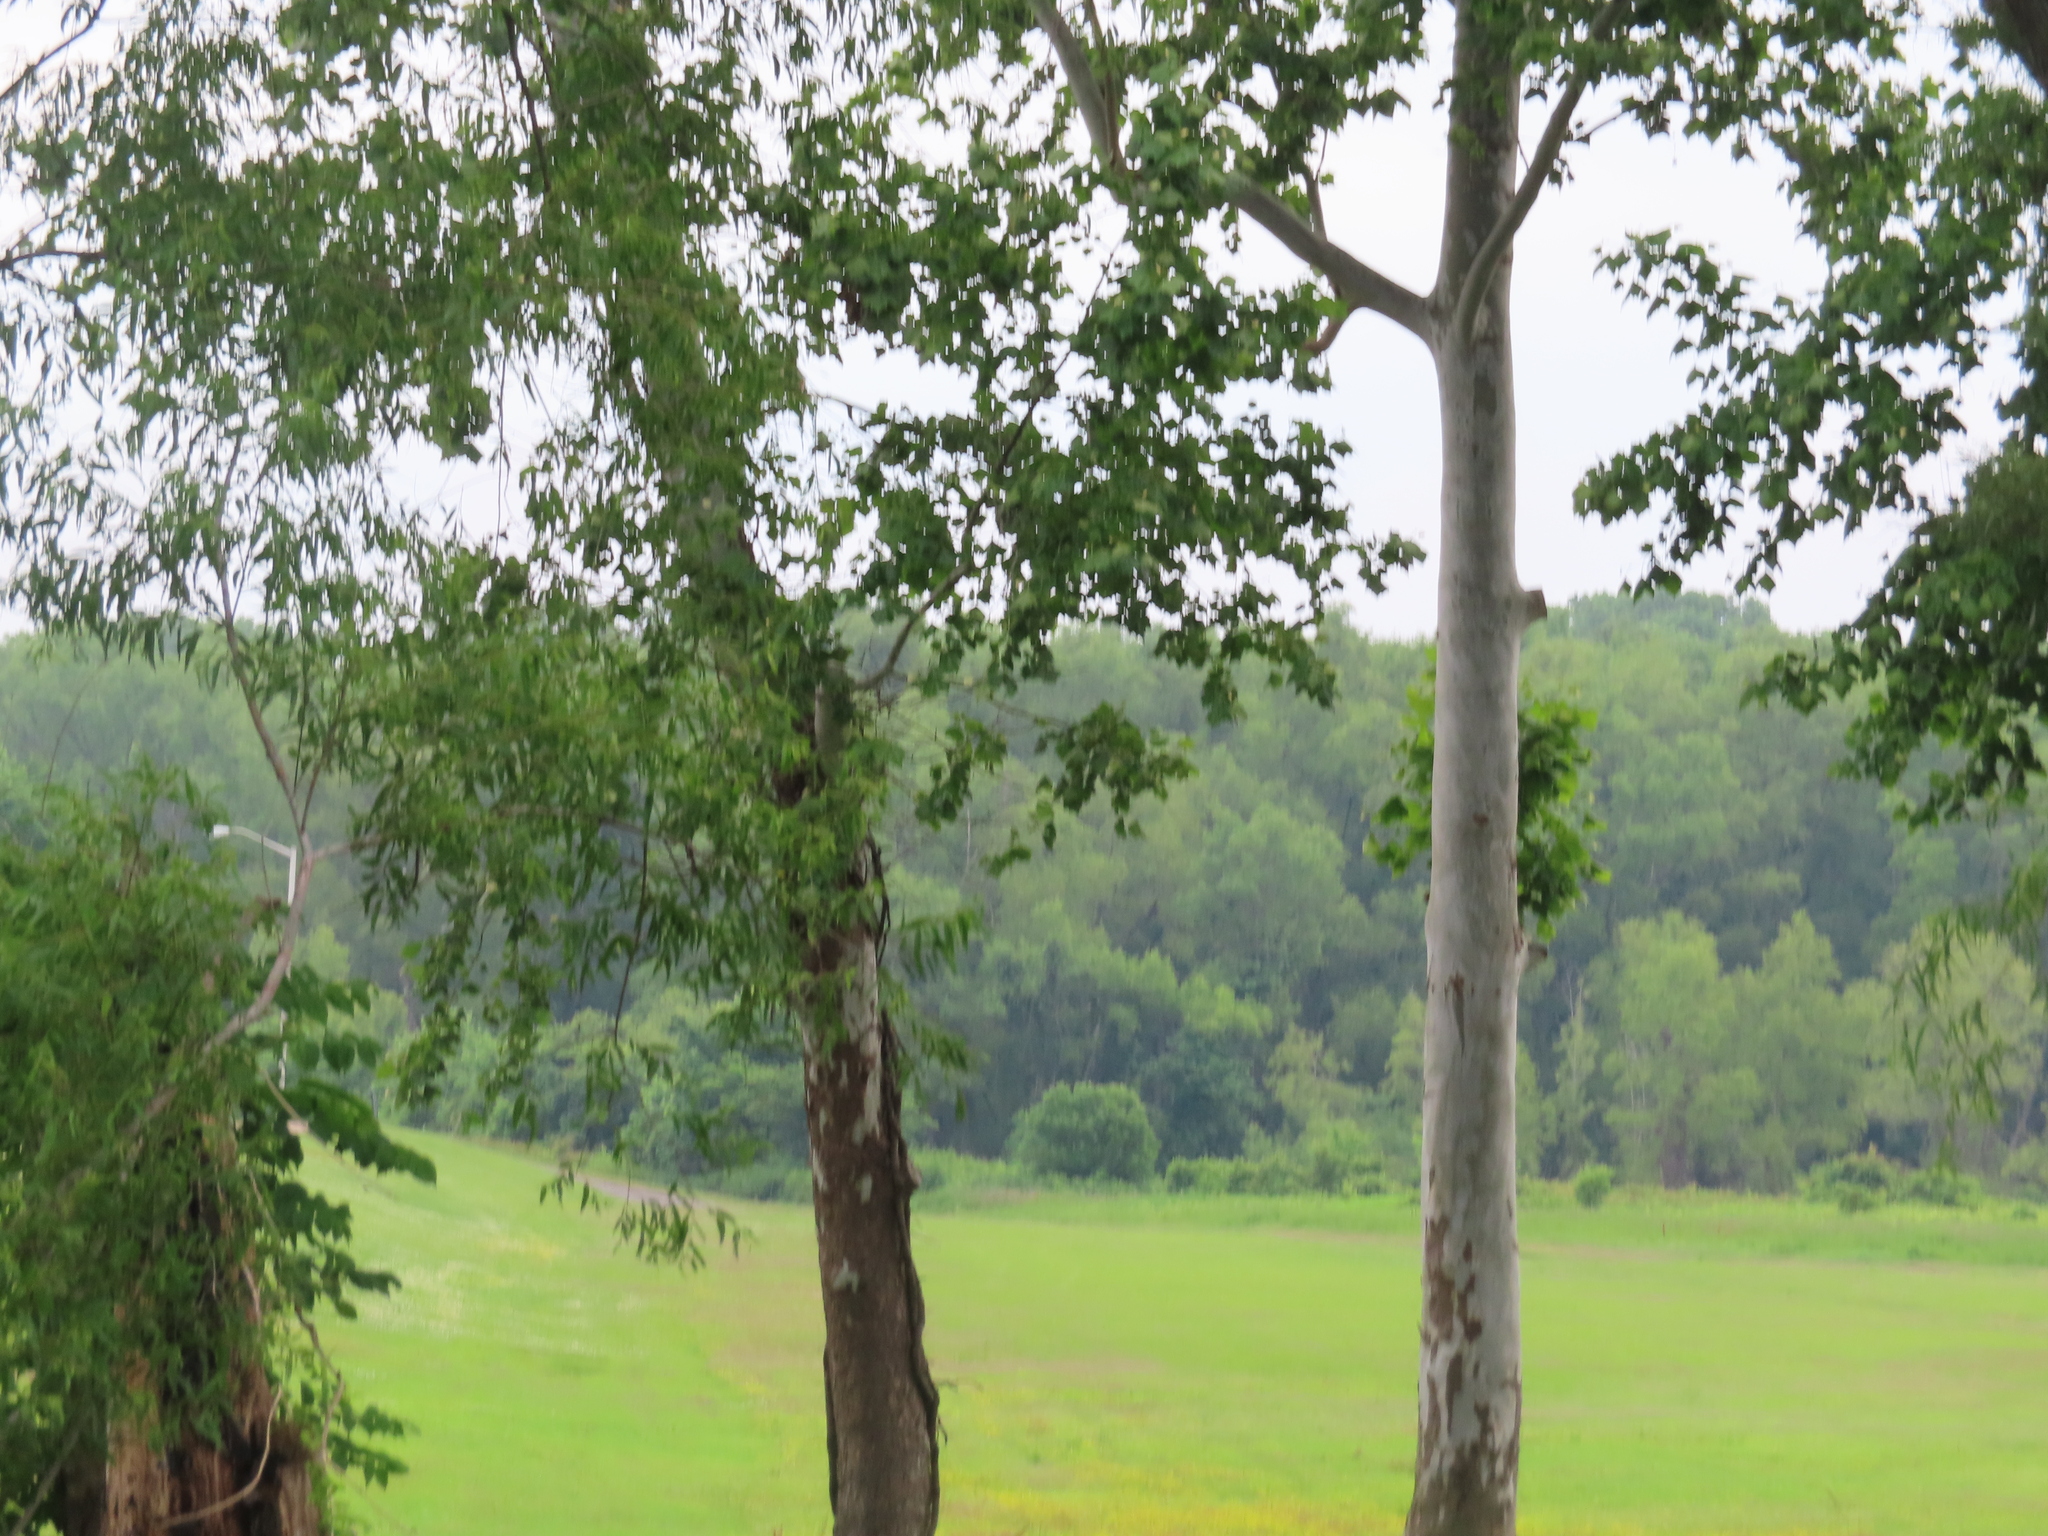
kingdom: Plantae
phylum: Tracheophyta
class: Magnoliopsida
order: Proteales
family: Platanaceae
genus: Platanus
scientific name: Platanus occidentalis
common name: American sycamore
